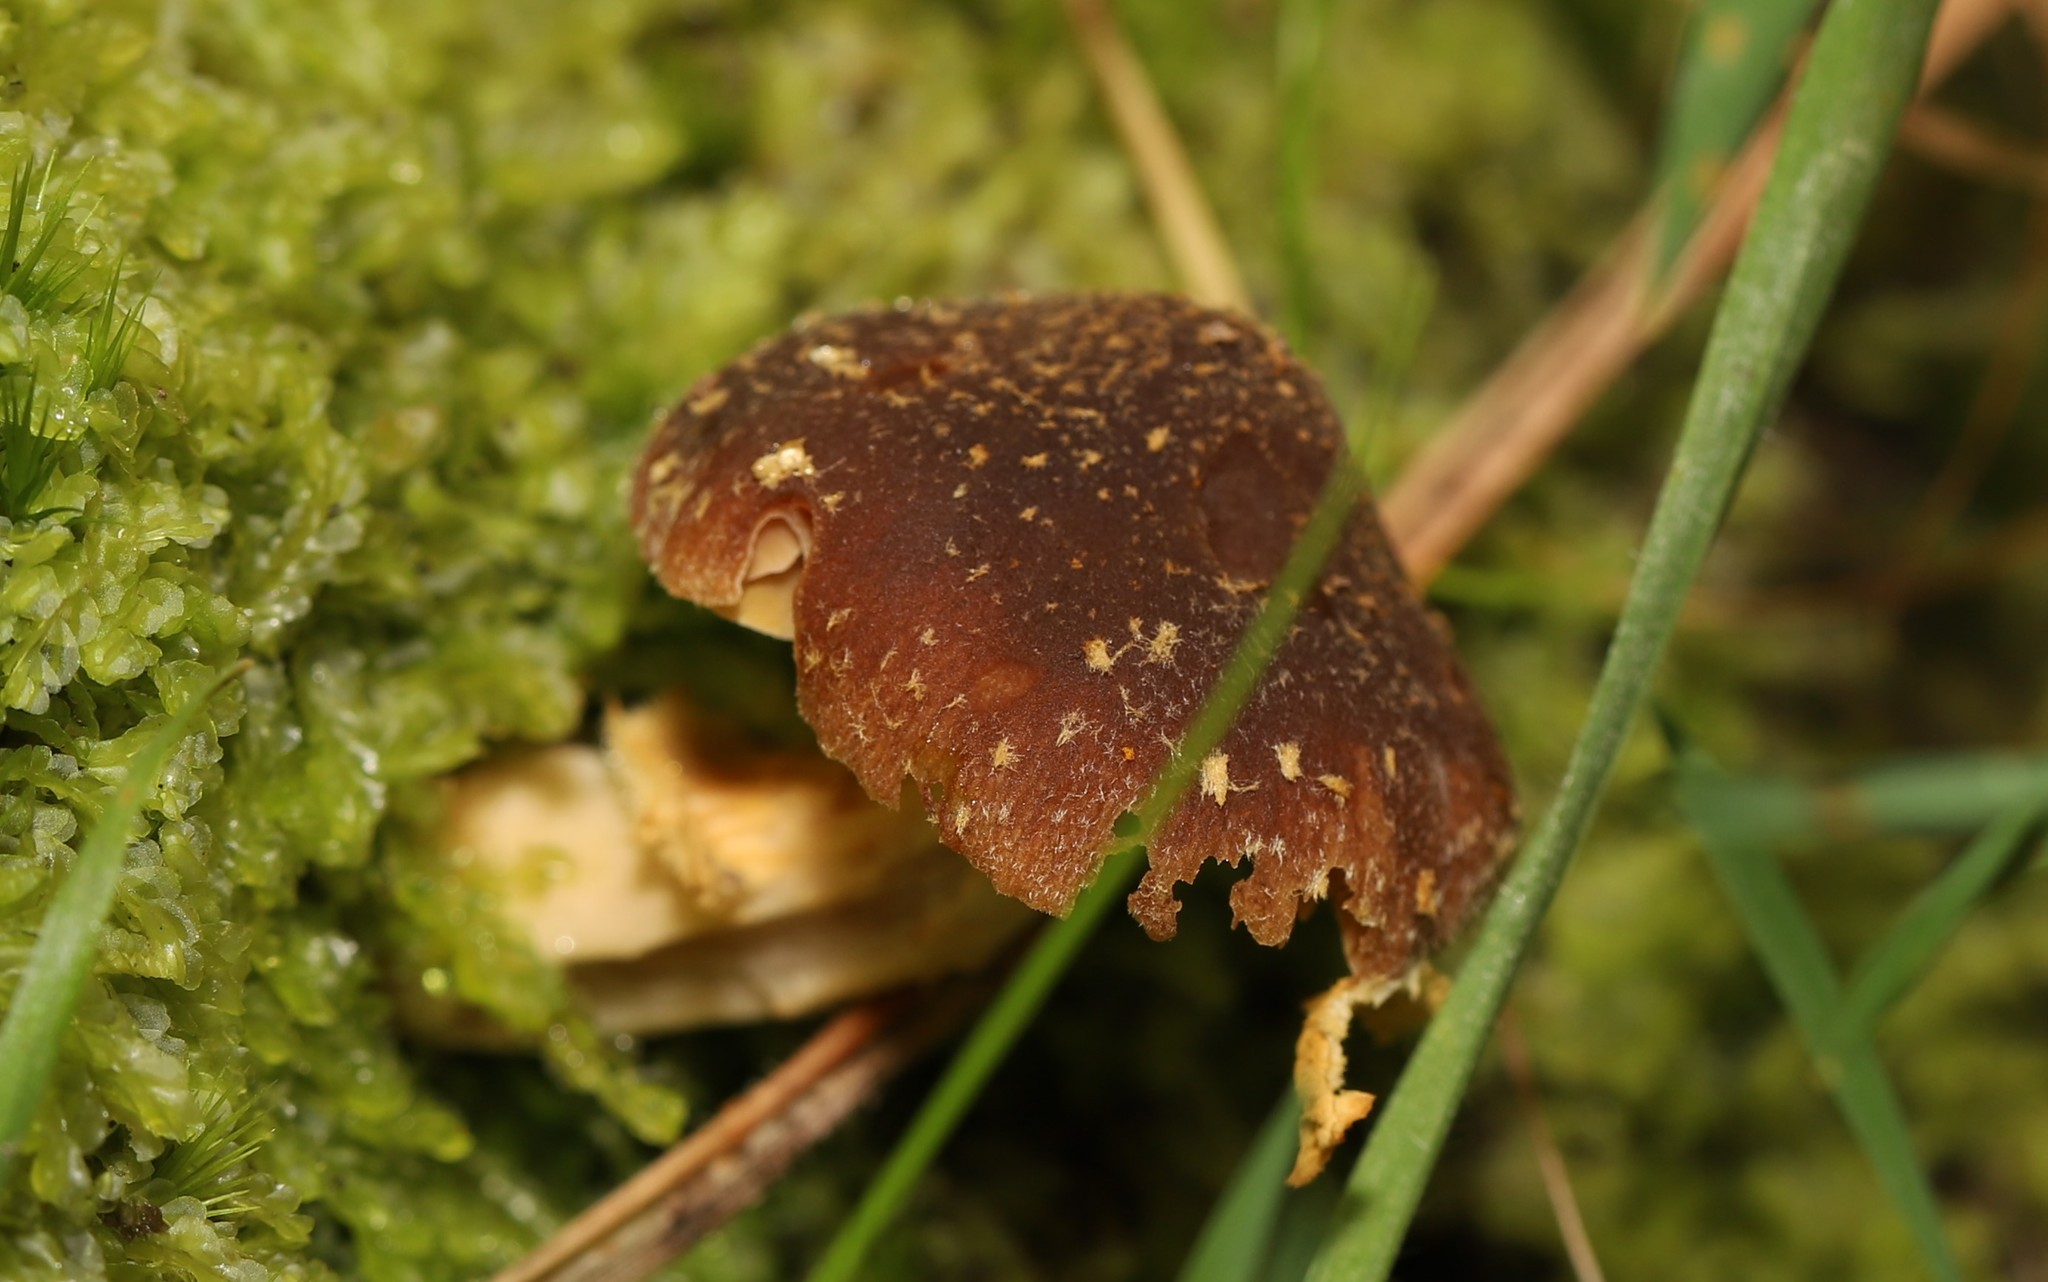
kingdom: Fungi
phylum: Basidiomycota
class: Agaricomycetes
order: Agaricales
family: Bolbitiaceae
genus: Descolea
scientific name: Descolea recedens
